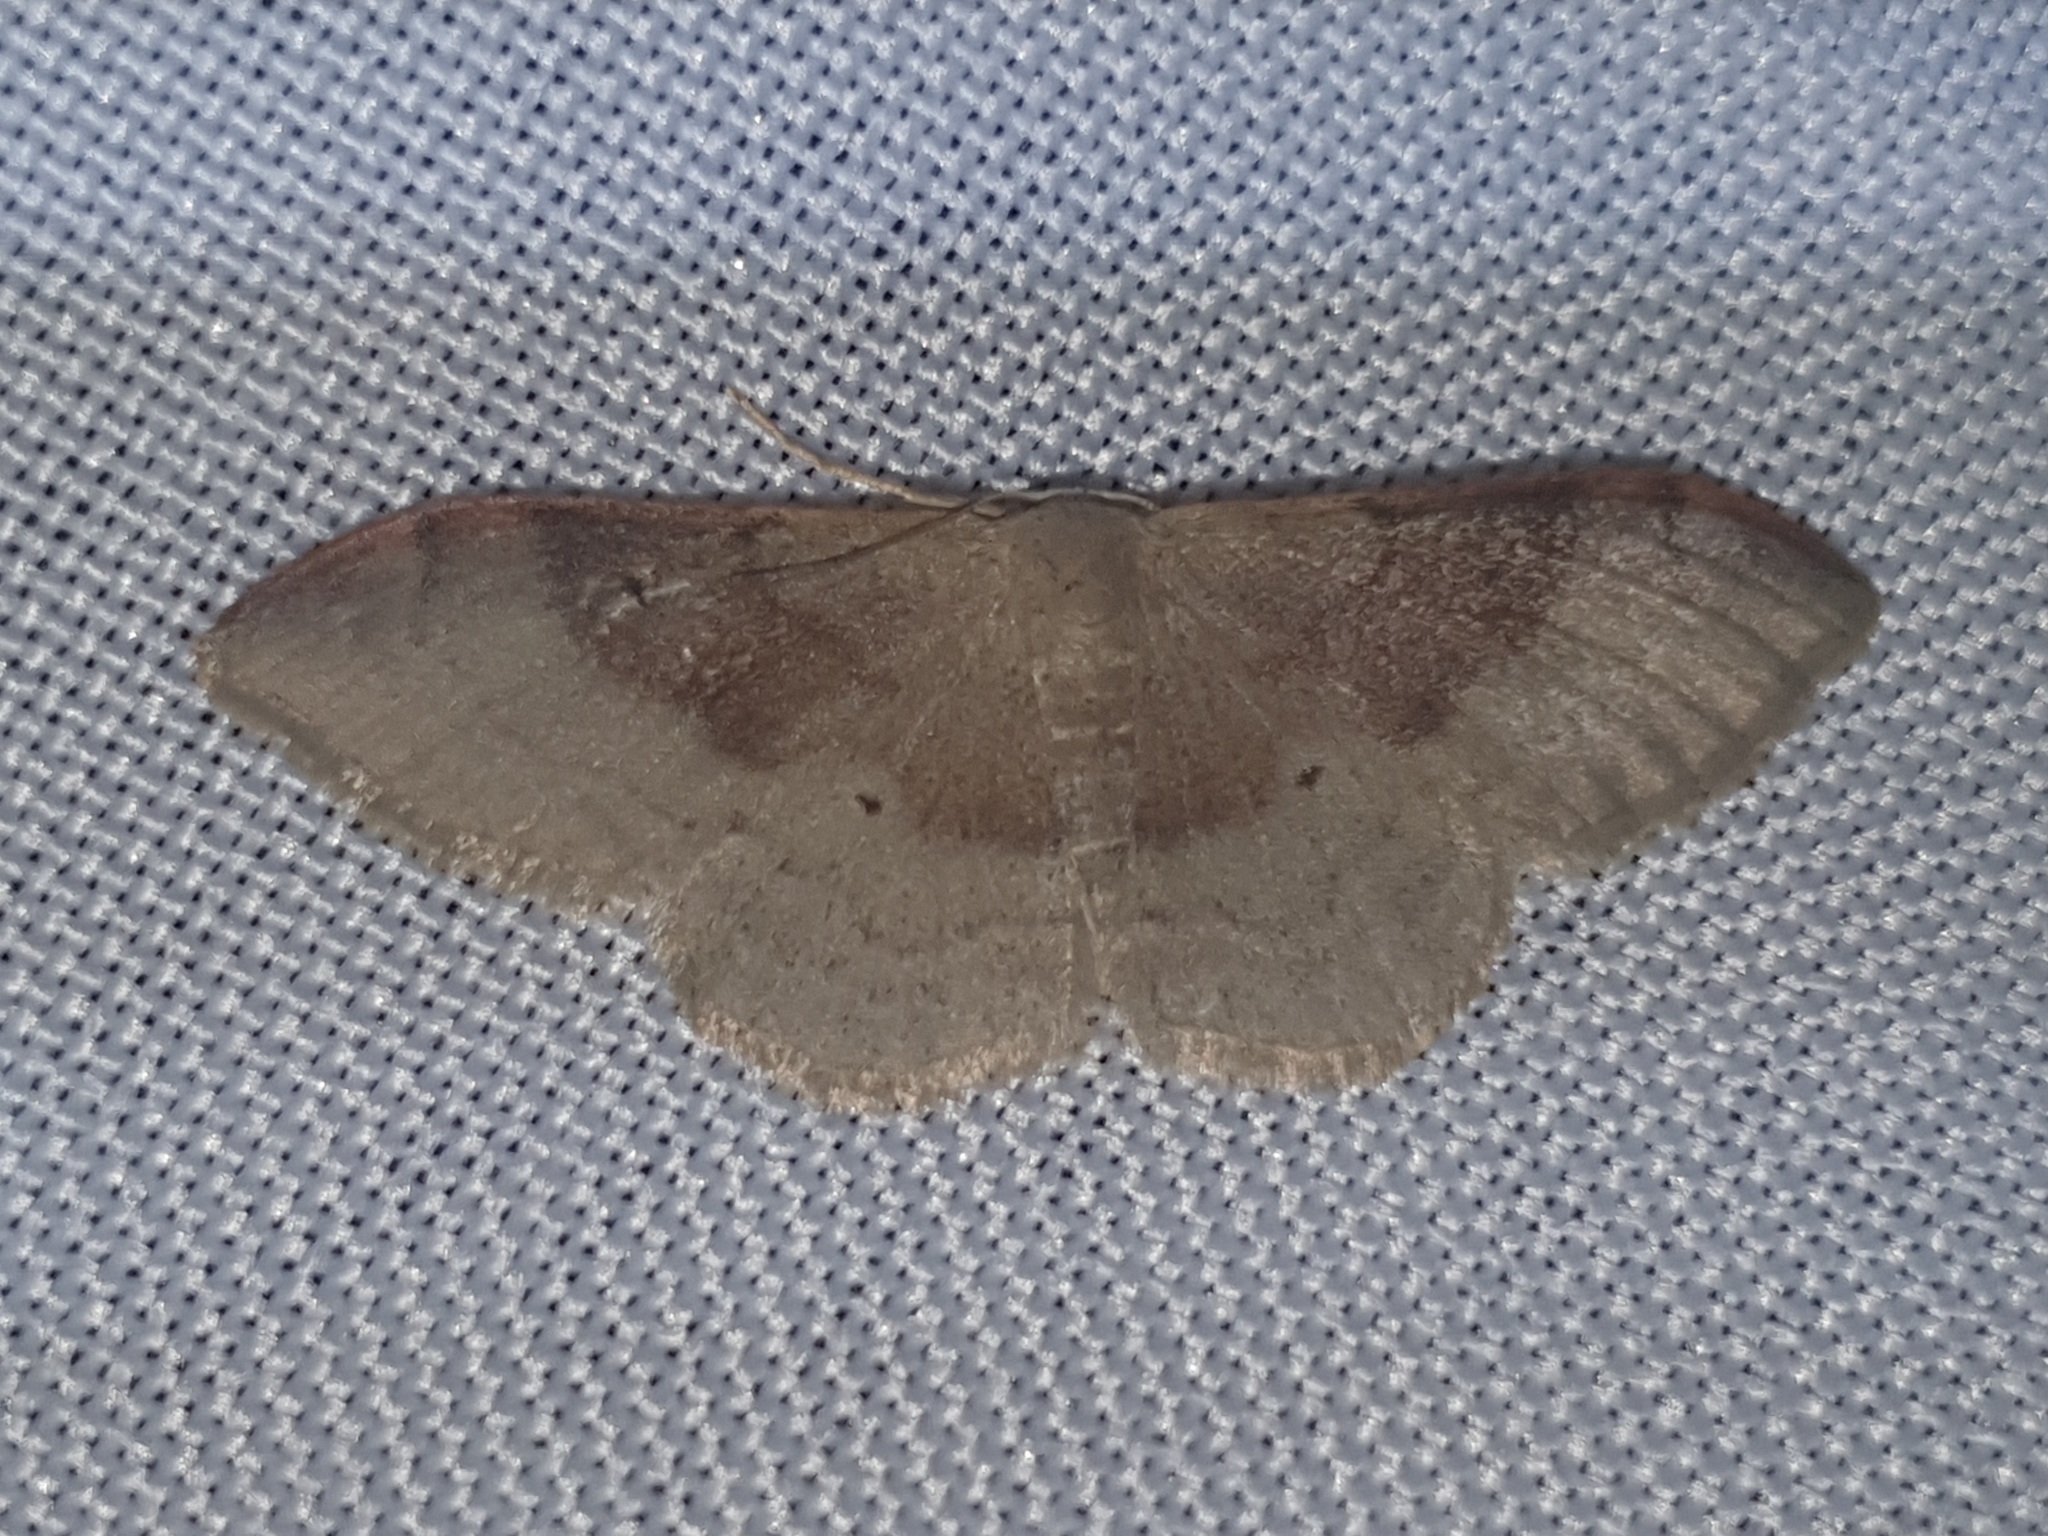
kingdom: Animalia
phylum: Arthropoda
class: Insecta
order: Lepidoptera
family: Geometridae
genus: Idaea
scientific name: Idaea degeneraria
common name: Portland ribbon wave
